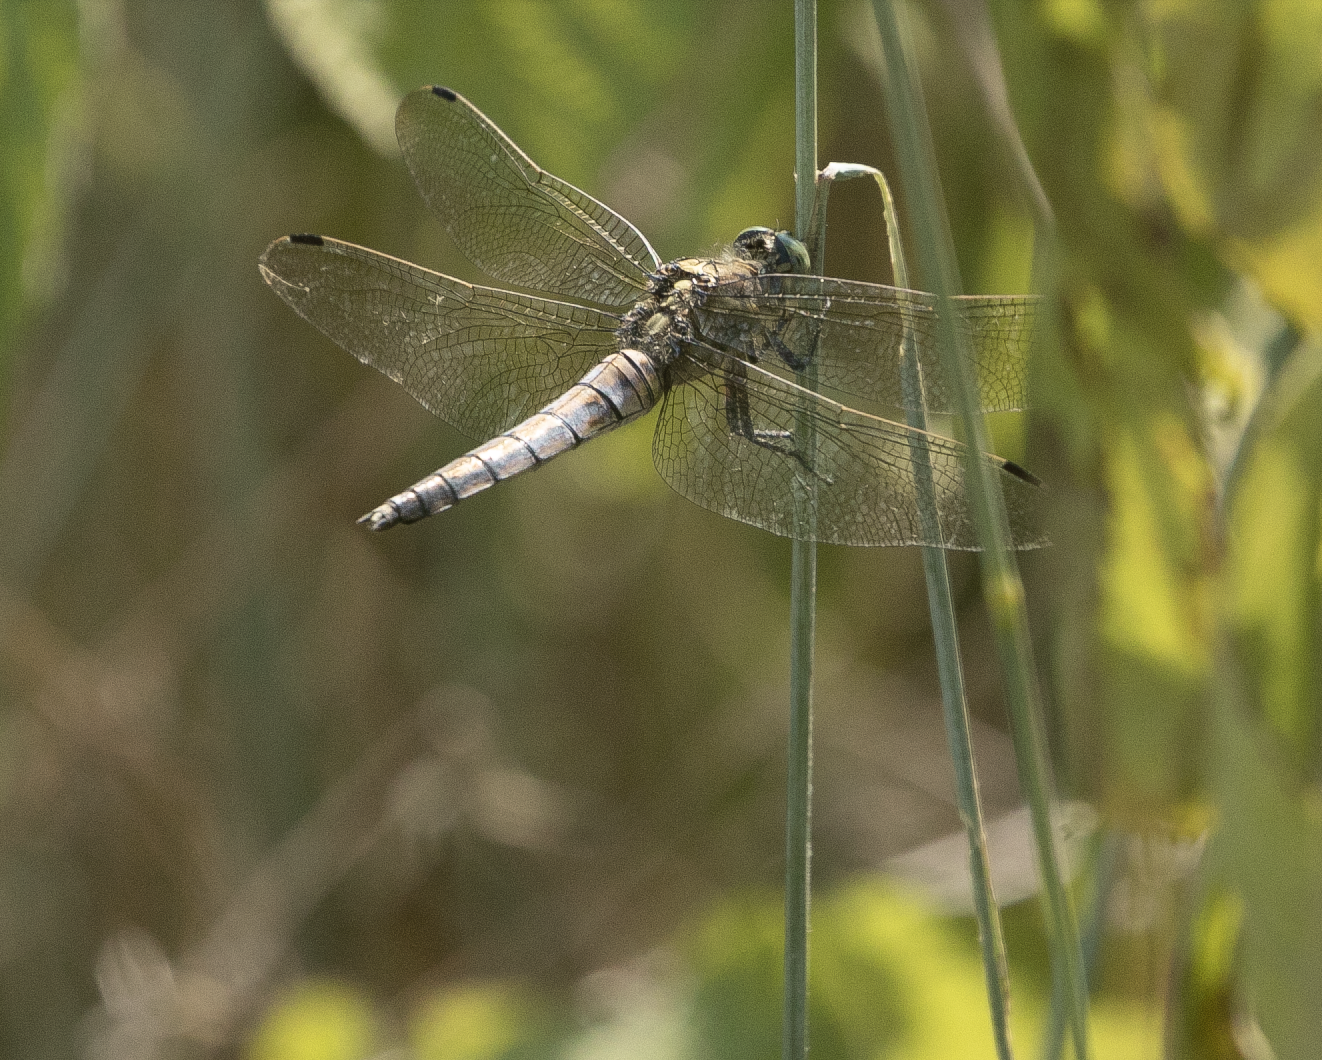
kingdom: Animalia
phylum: Arthropoda
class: Insecta
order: Odonata
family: Libellulidae
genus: Orthetrum
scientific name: Orthetrum cancellatum
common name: Black-tailed skimmer
